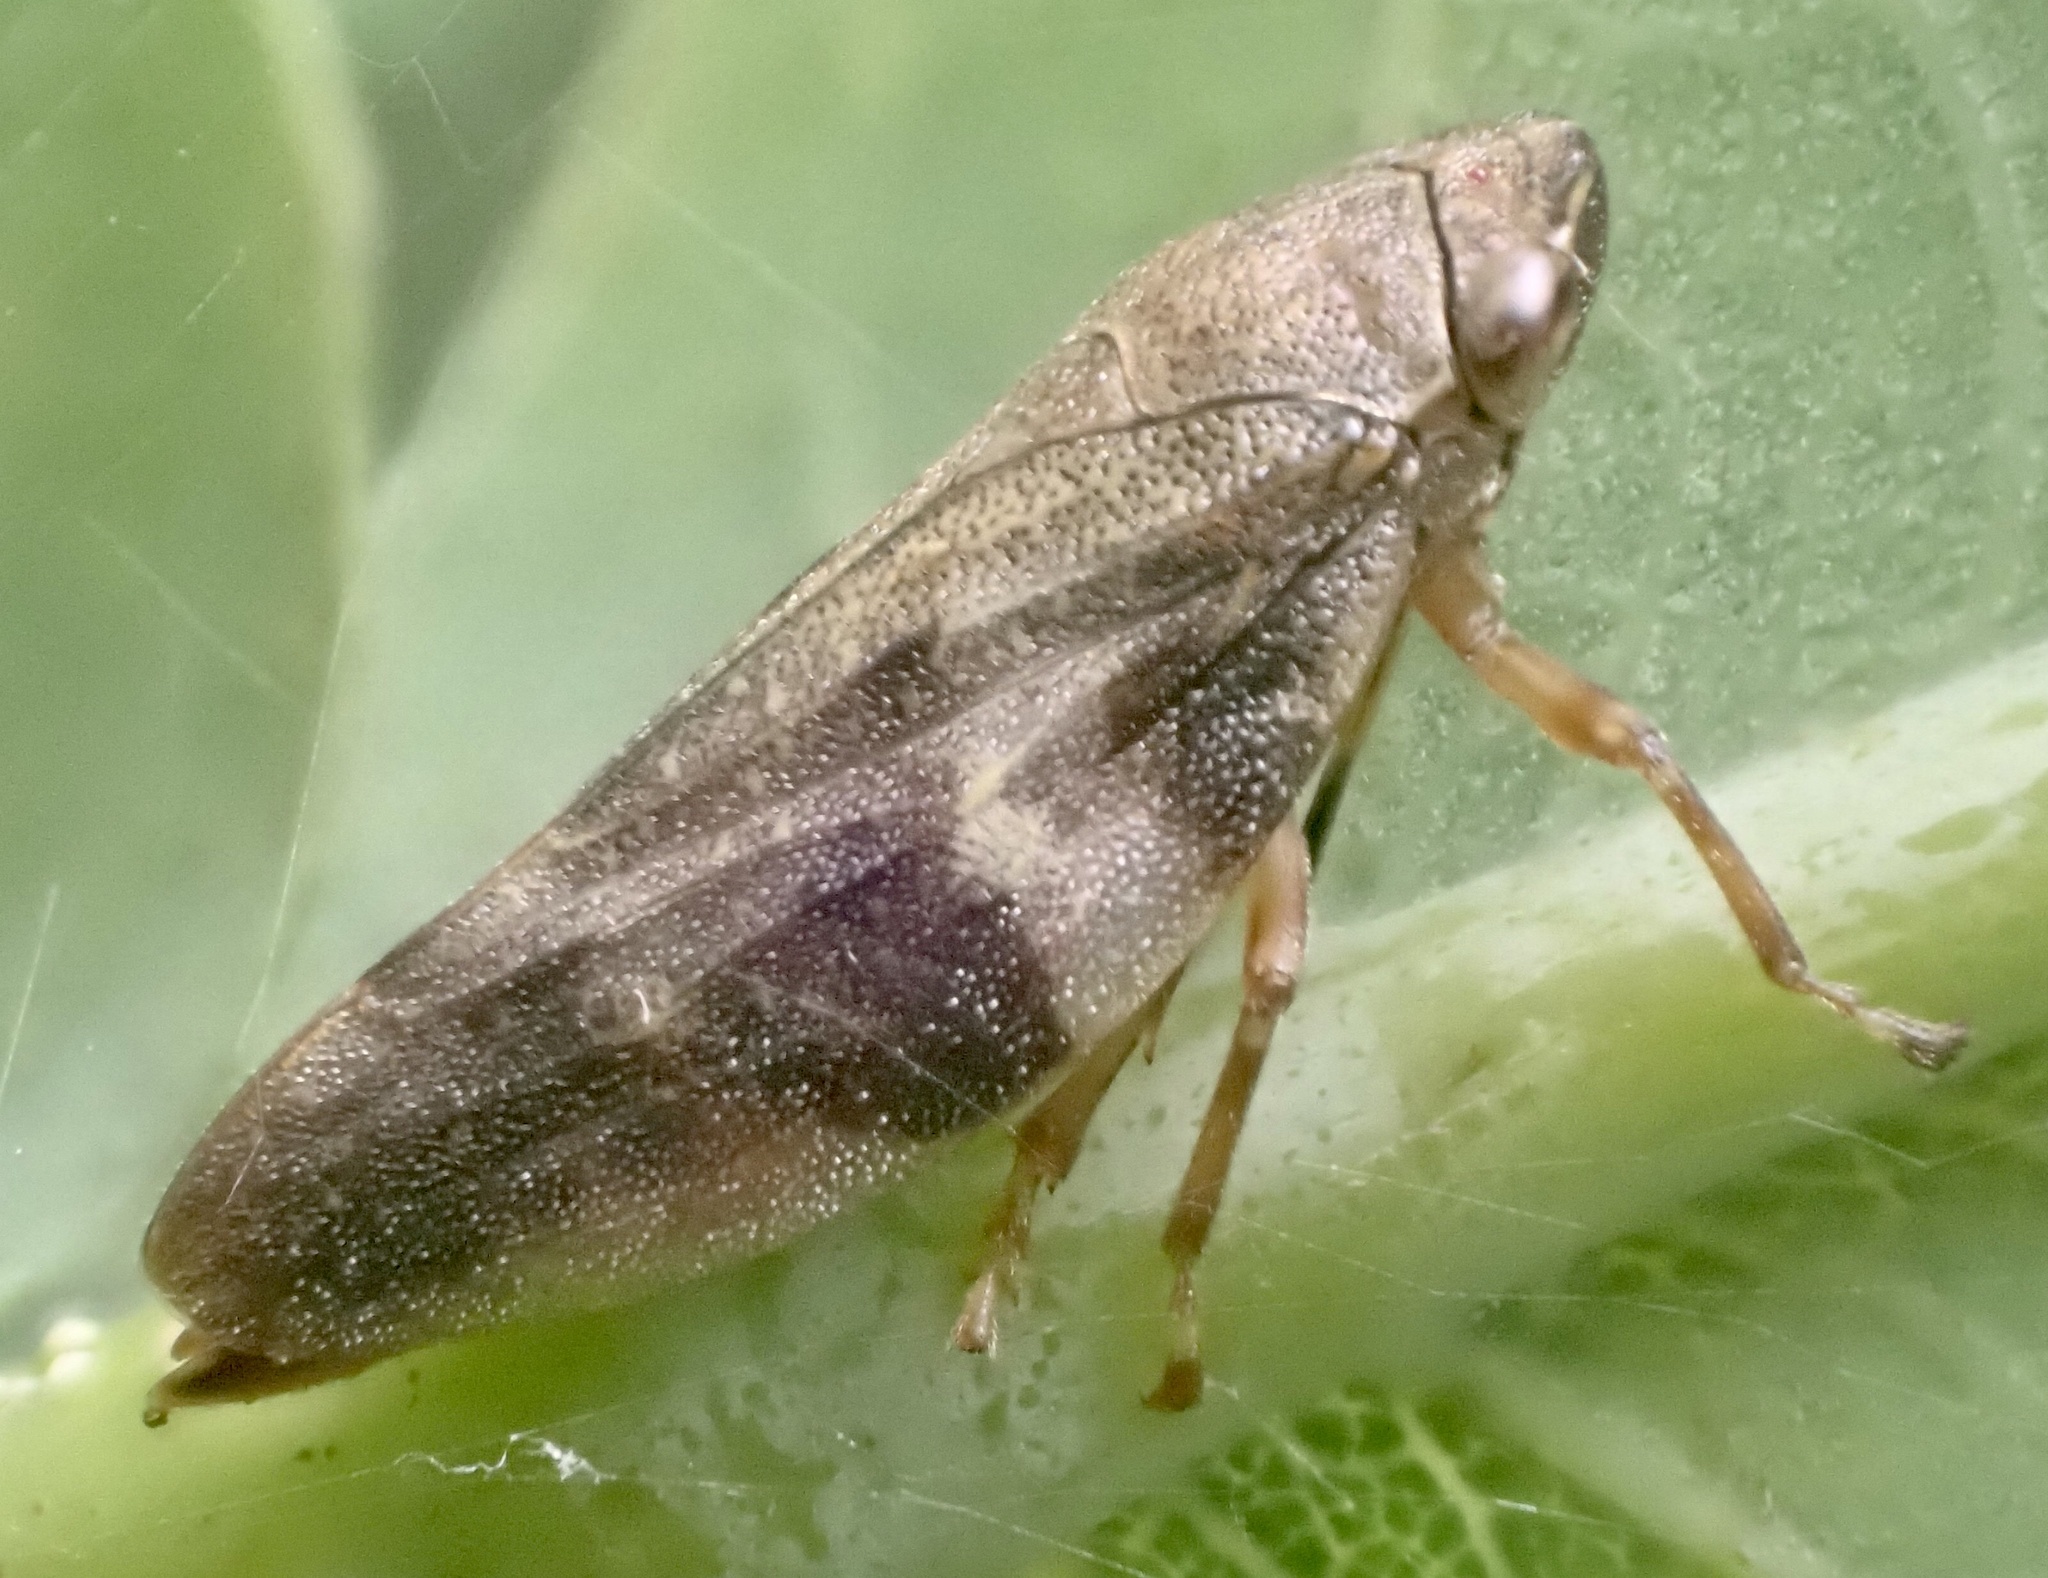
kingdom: Animalia
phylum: Arthropoda
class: Insecta
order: Hemiptera
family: Aphrophoridae
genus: Aphrophora
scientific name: Aphrophora alni
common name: European alder spittlebug
